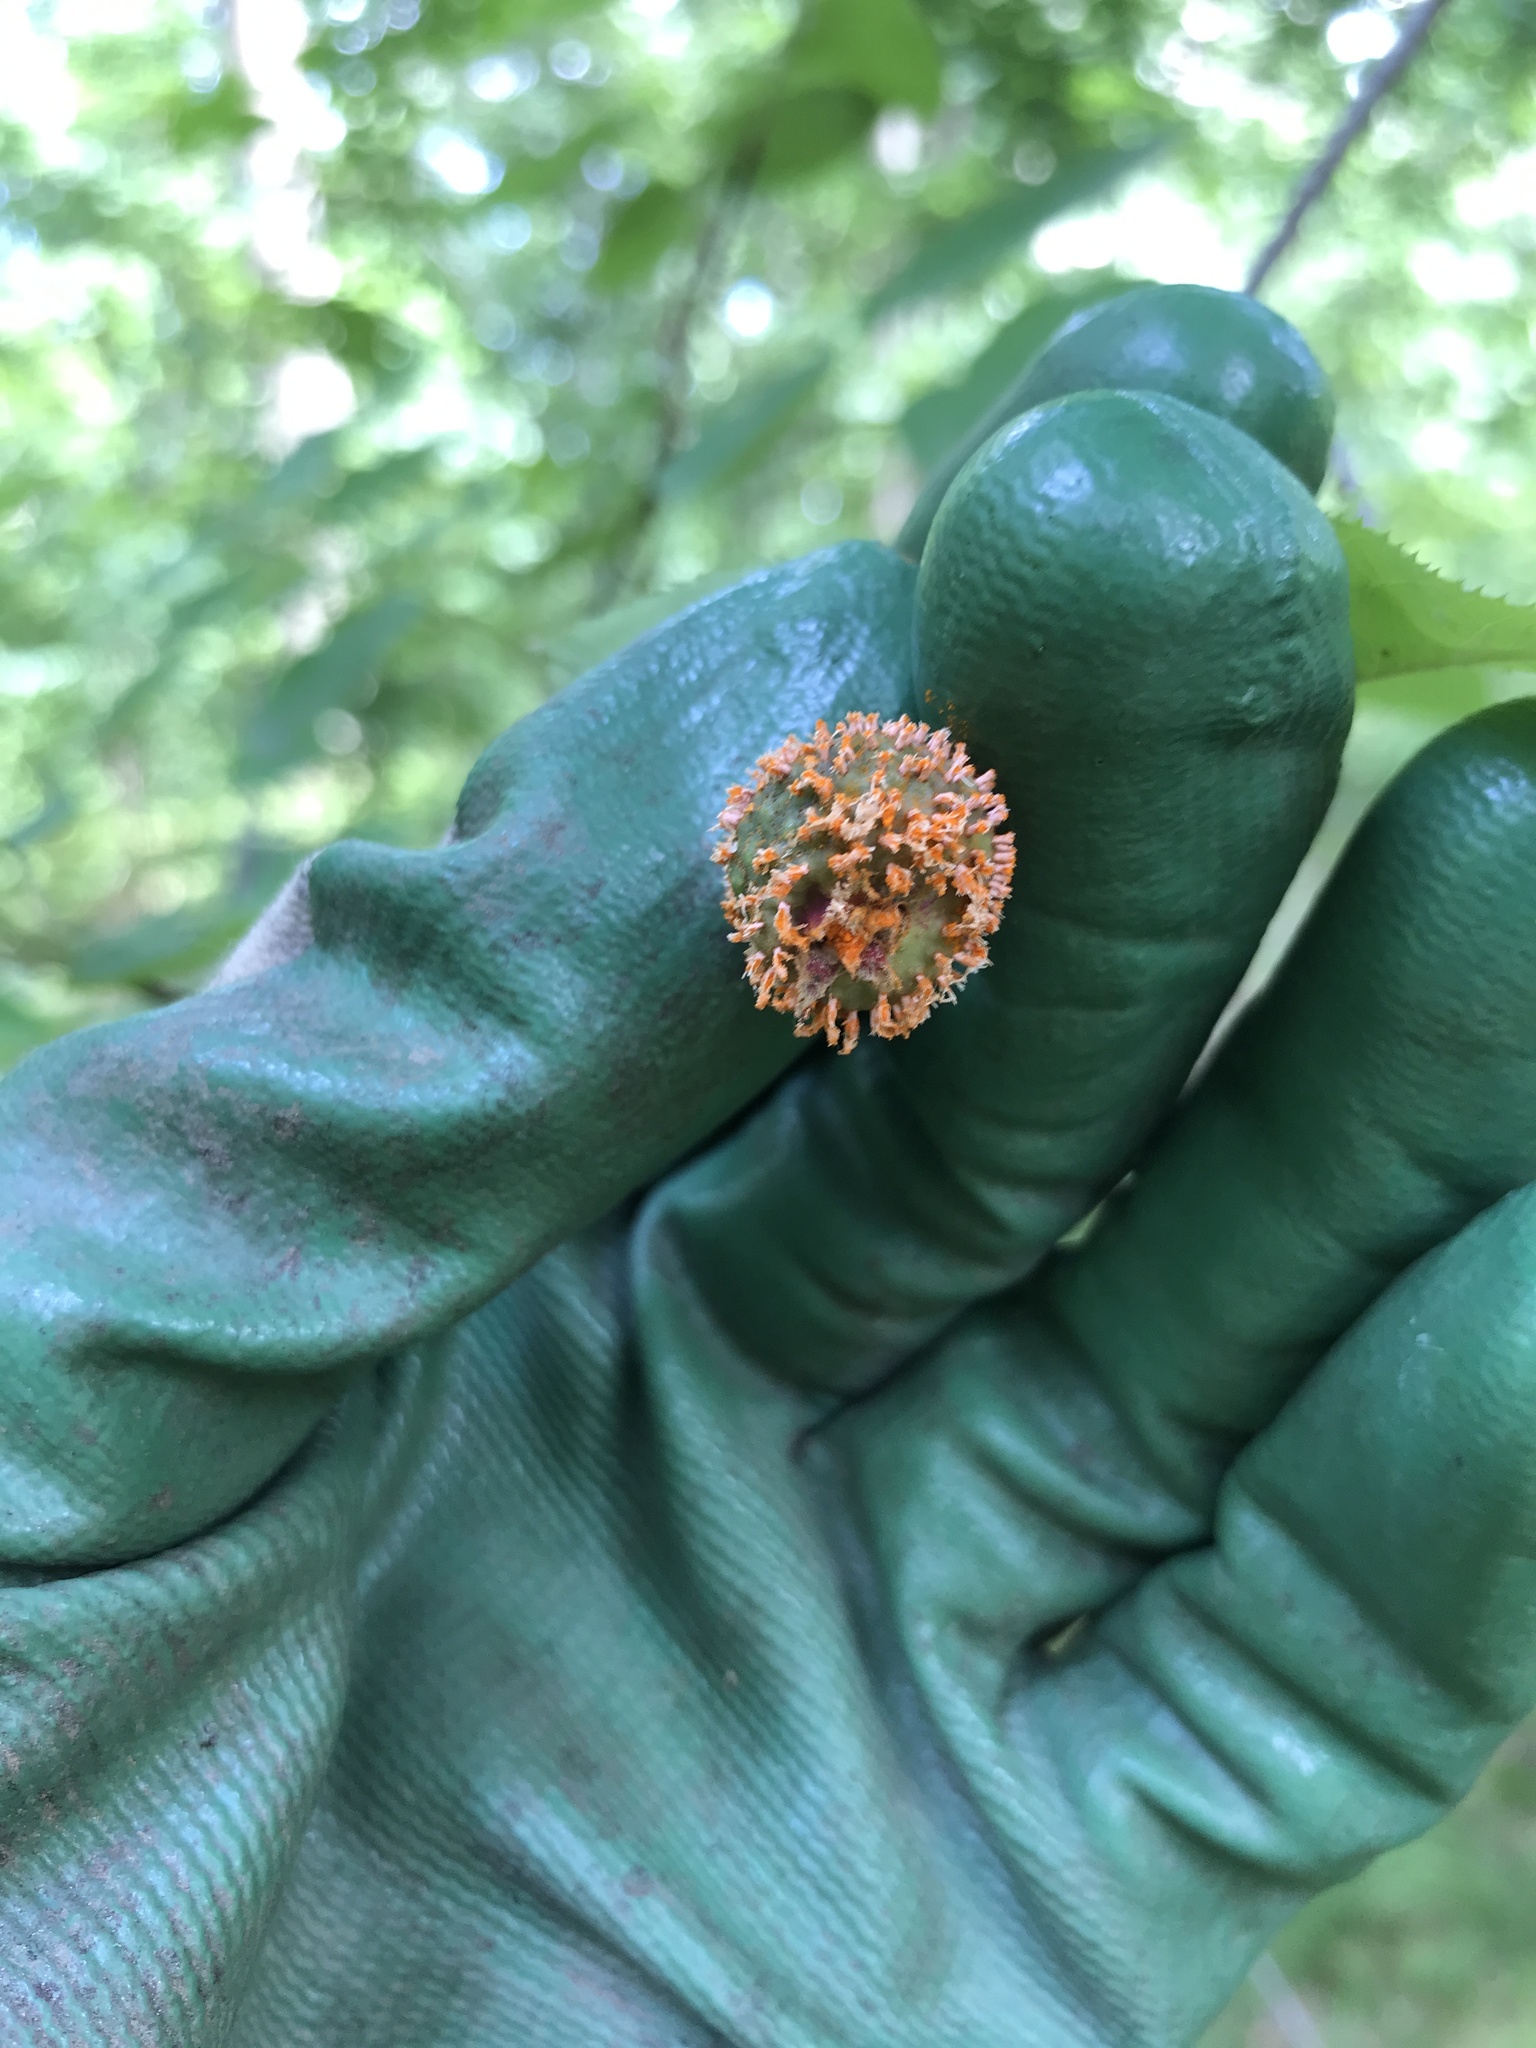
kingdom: Fungi
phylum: Basidiomycota
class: Pucciniomycetes
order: Pucciniales
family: Gymnosporangiaceae
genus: Gymnosporangium
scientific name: Gymnosporangium clavipes
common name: Quince rust
